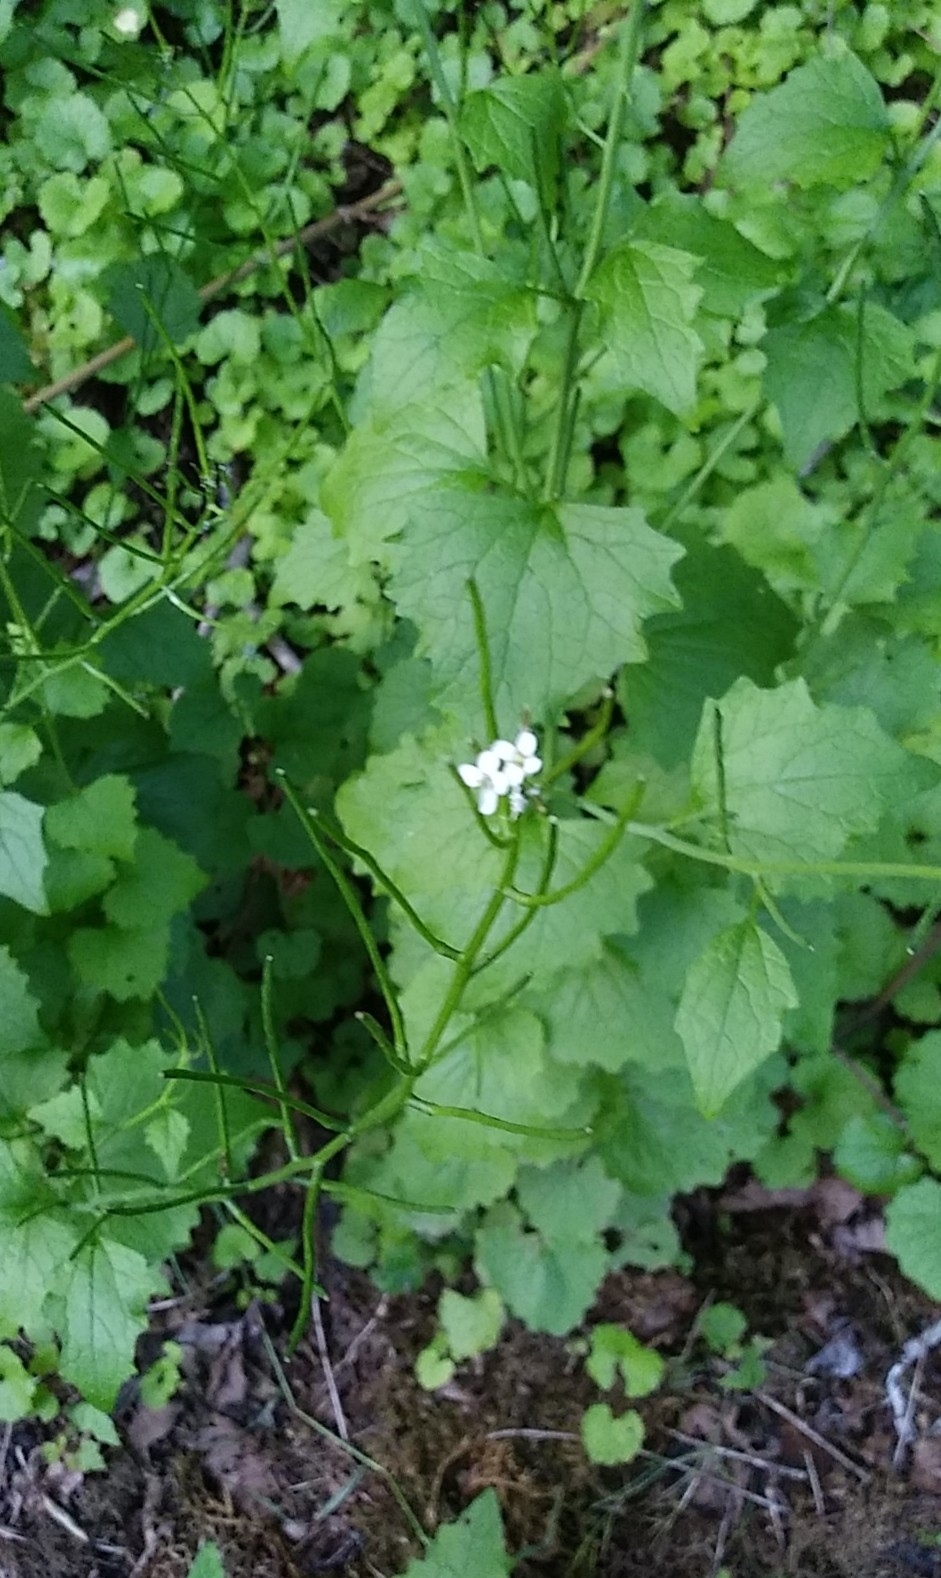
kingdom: Plantae
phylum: Tracheophyta
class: Magnoliopsida
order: Brassicales
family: Brassicaceae
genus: Alliaria
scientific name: Alliaria petiolata
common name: Garlic mustard
